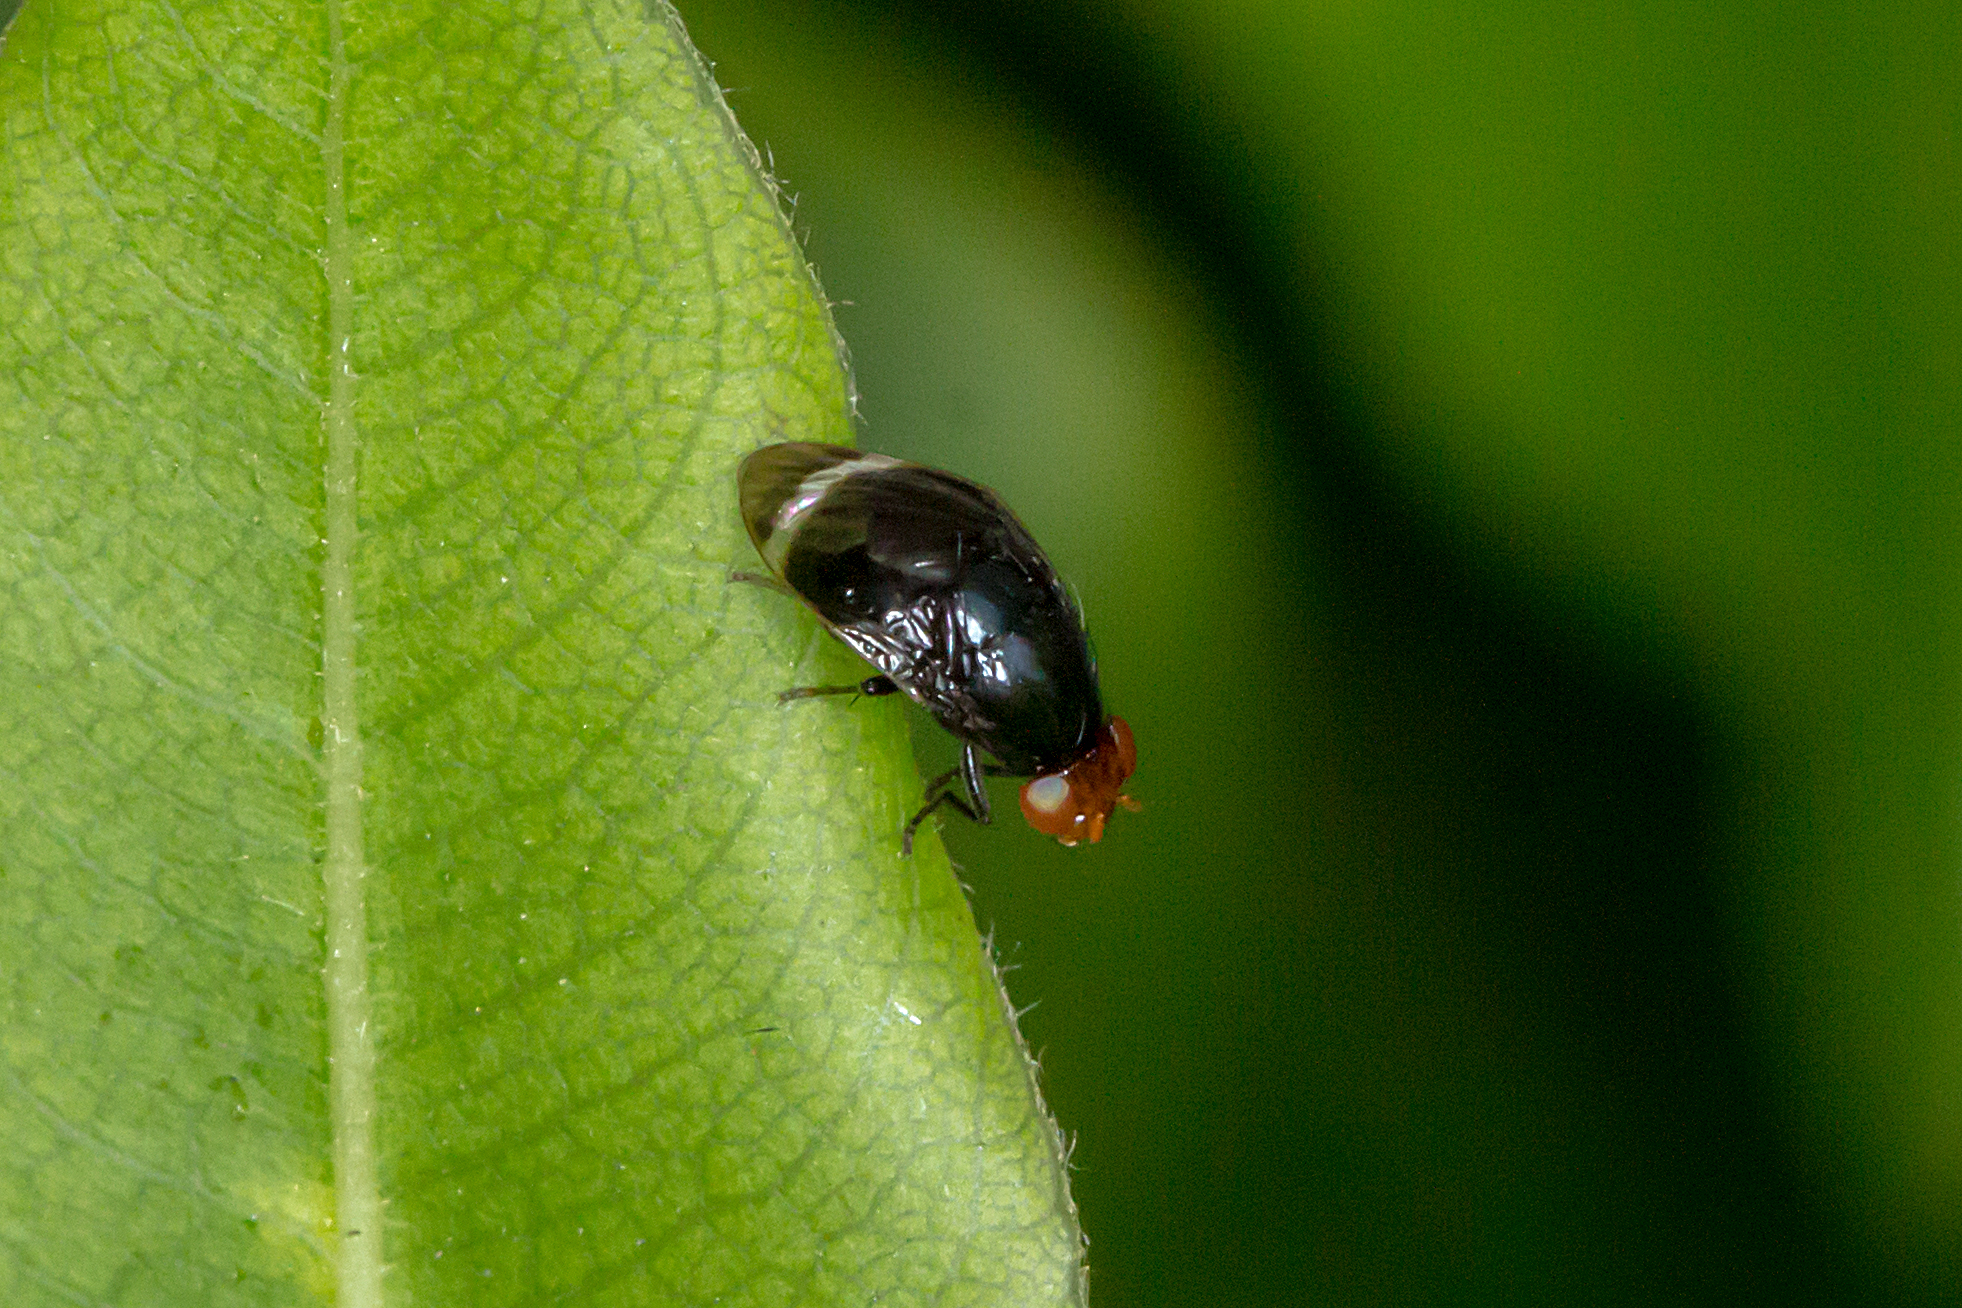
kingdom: Animalia
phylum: Arthropoda
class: Insecta
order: Diptera
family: Lauxaniidae
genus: Depressa
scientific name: Depressa atrata
